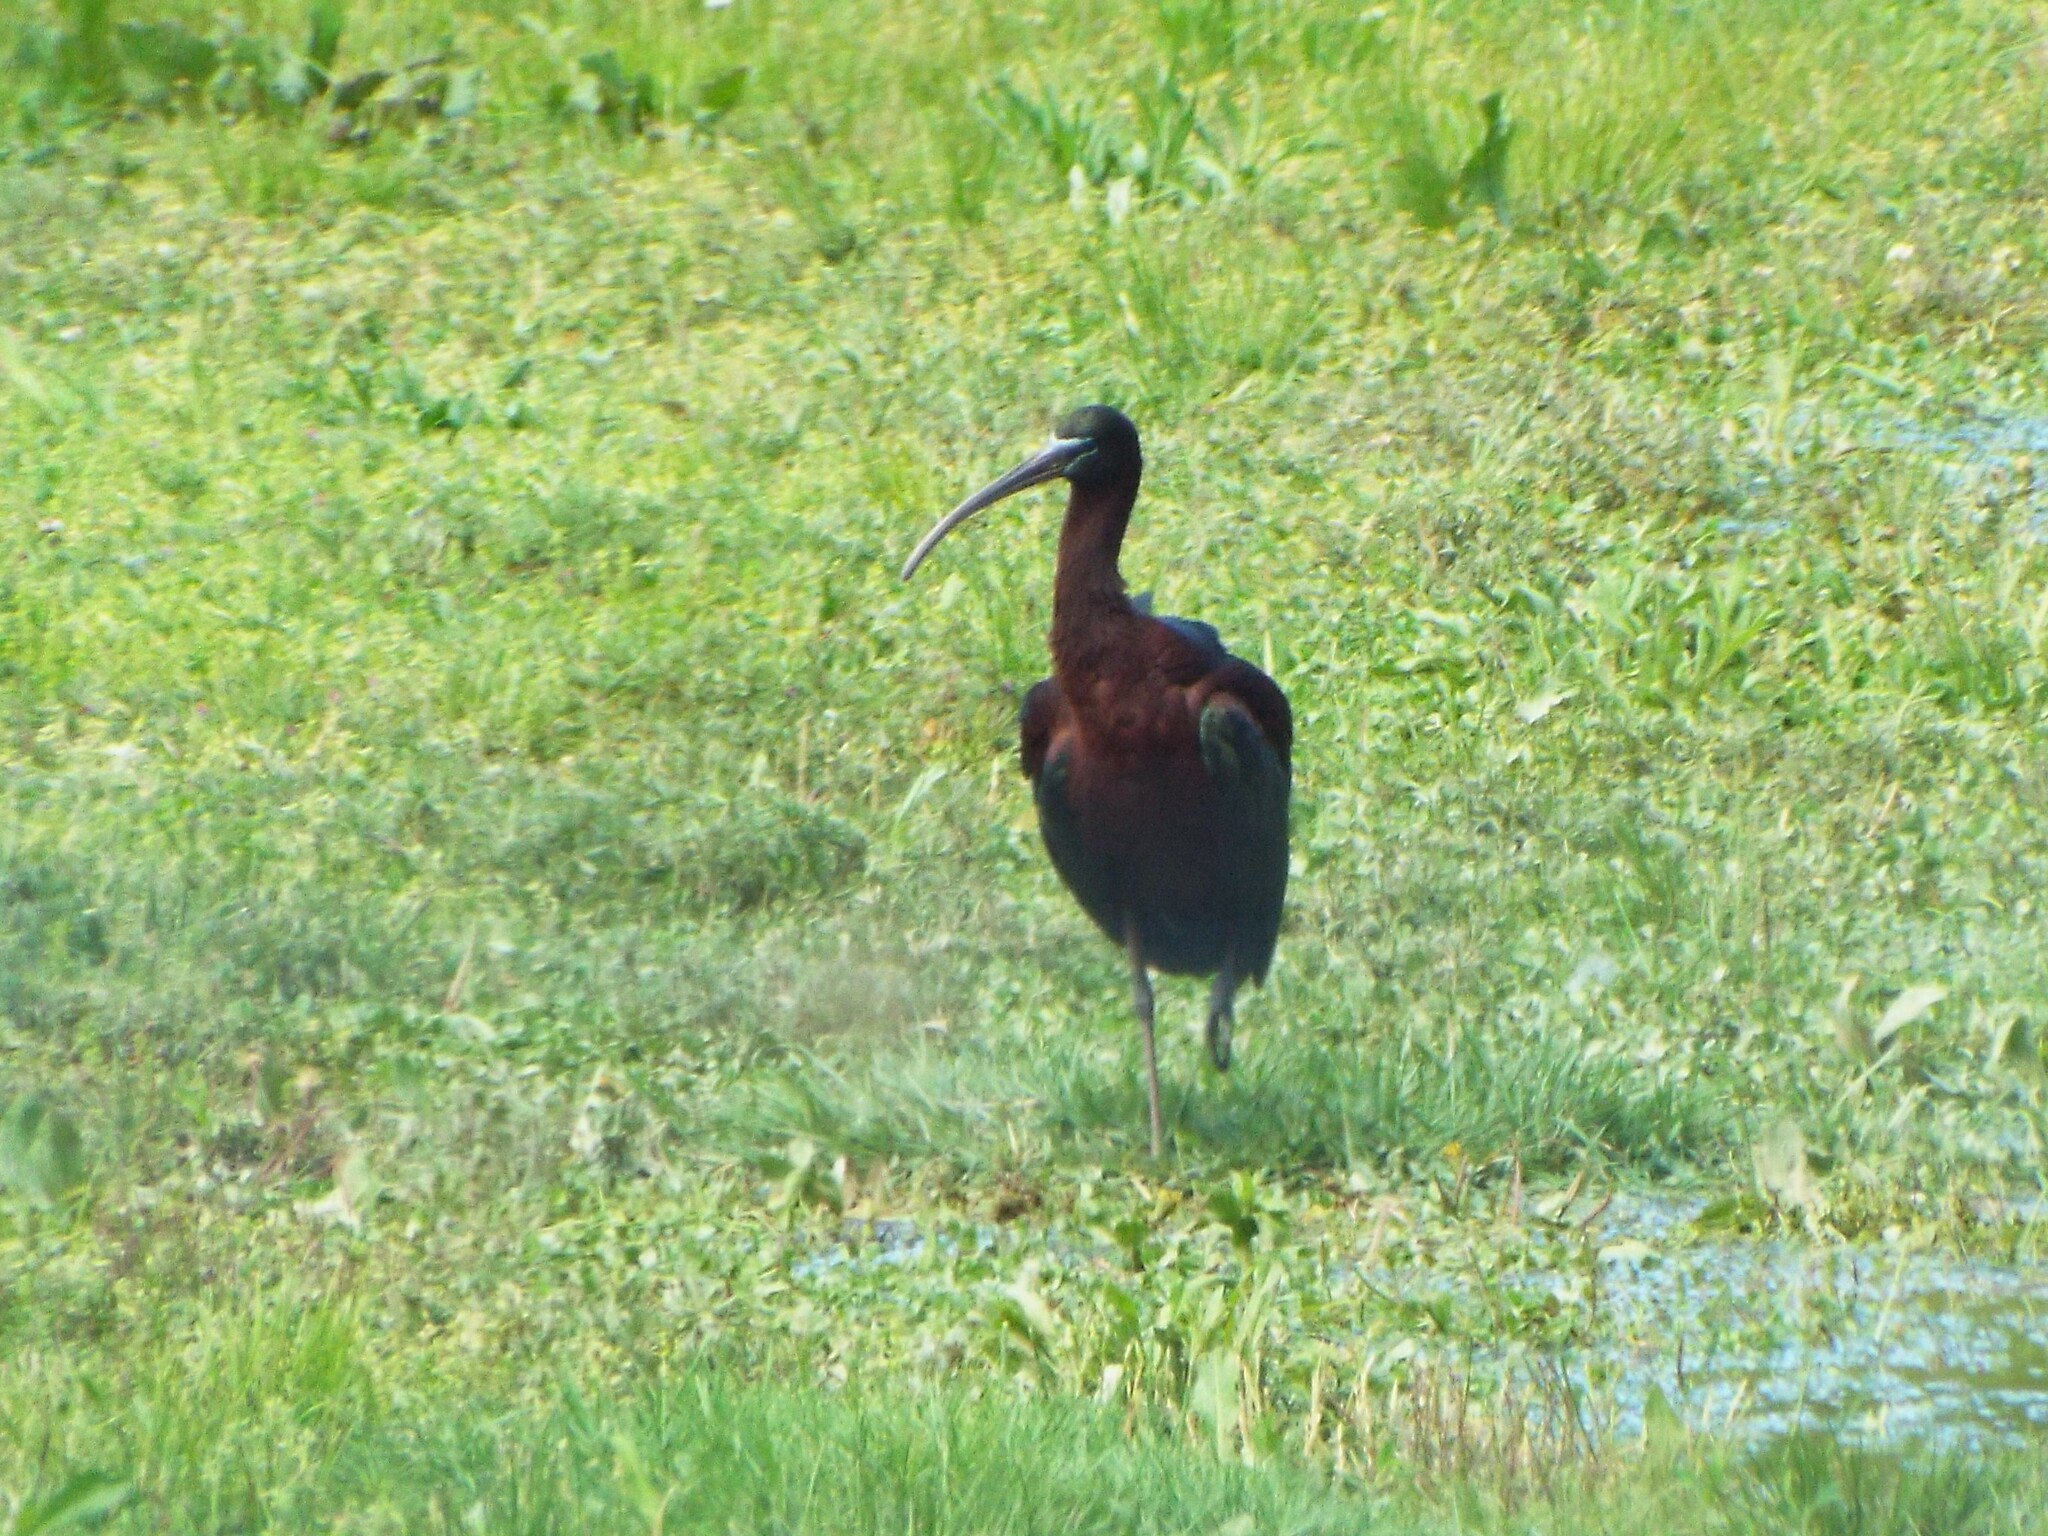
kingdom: Animalia
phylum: Chordata
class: Aves
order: Pelecaniformes
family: Threskiornithidae
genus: Plegadis
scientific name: Plegadis falcinellus
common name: Glossy ibis
